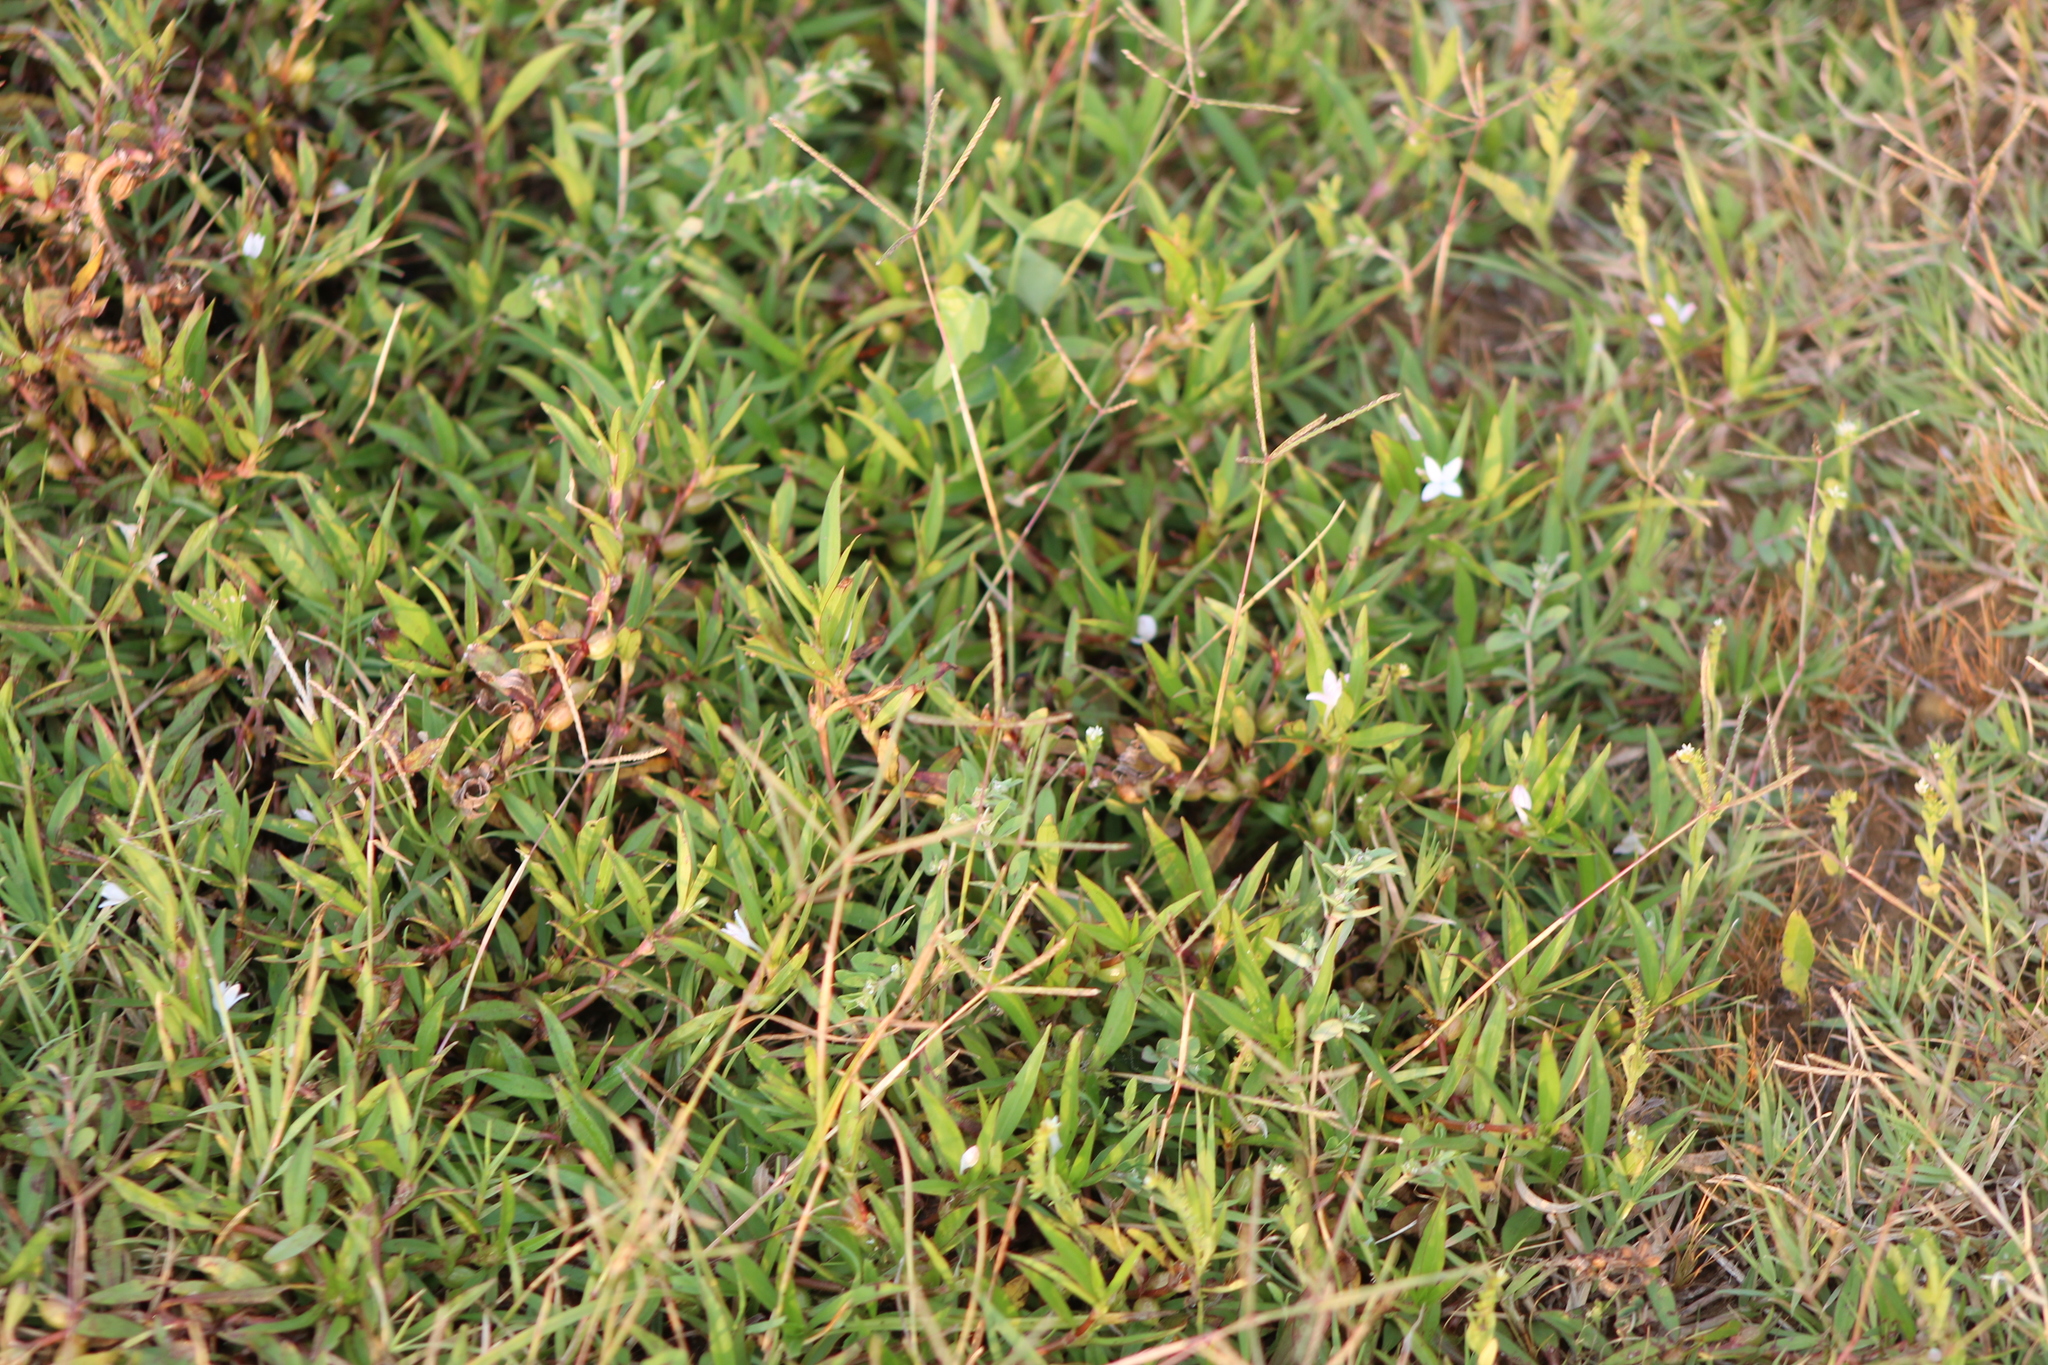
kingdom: Plantae
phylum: Tracheophyta
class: Magnoliopsida
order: Gentianales
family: Rubiaceae
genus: Diodia
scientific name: Diodia virginiana
